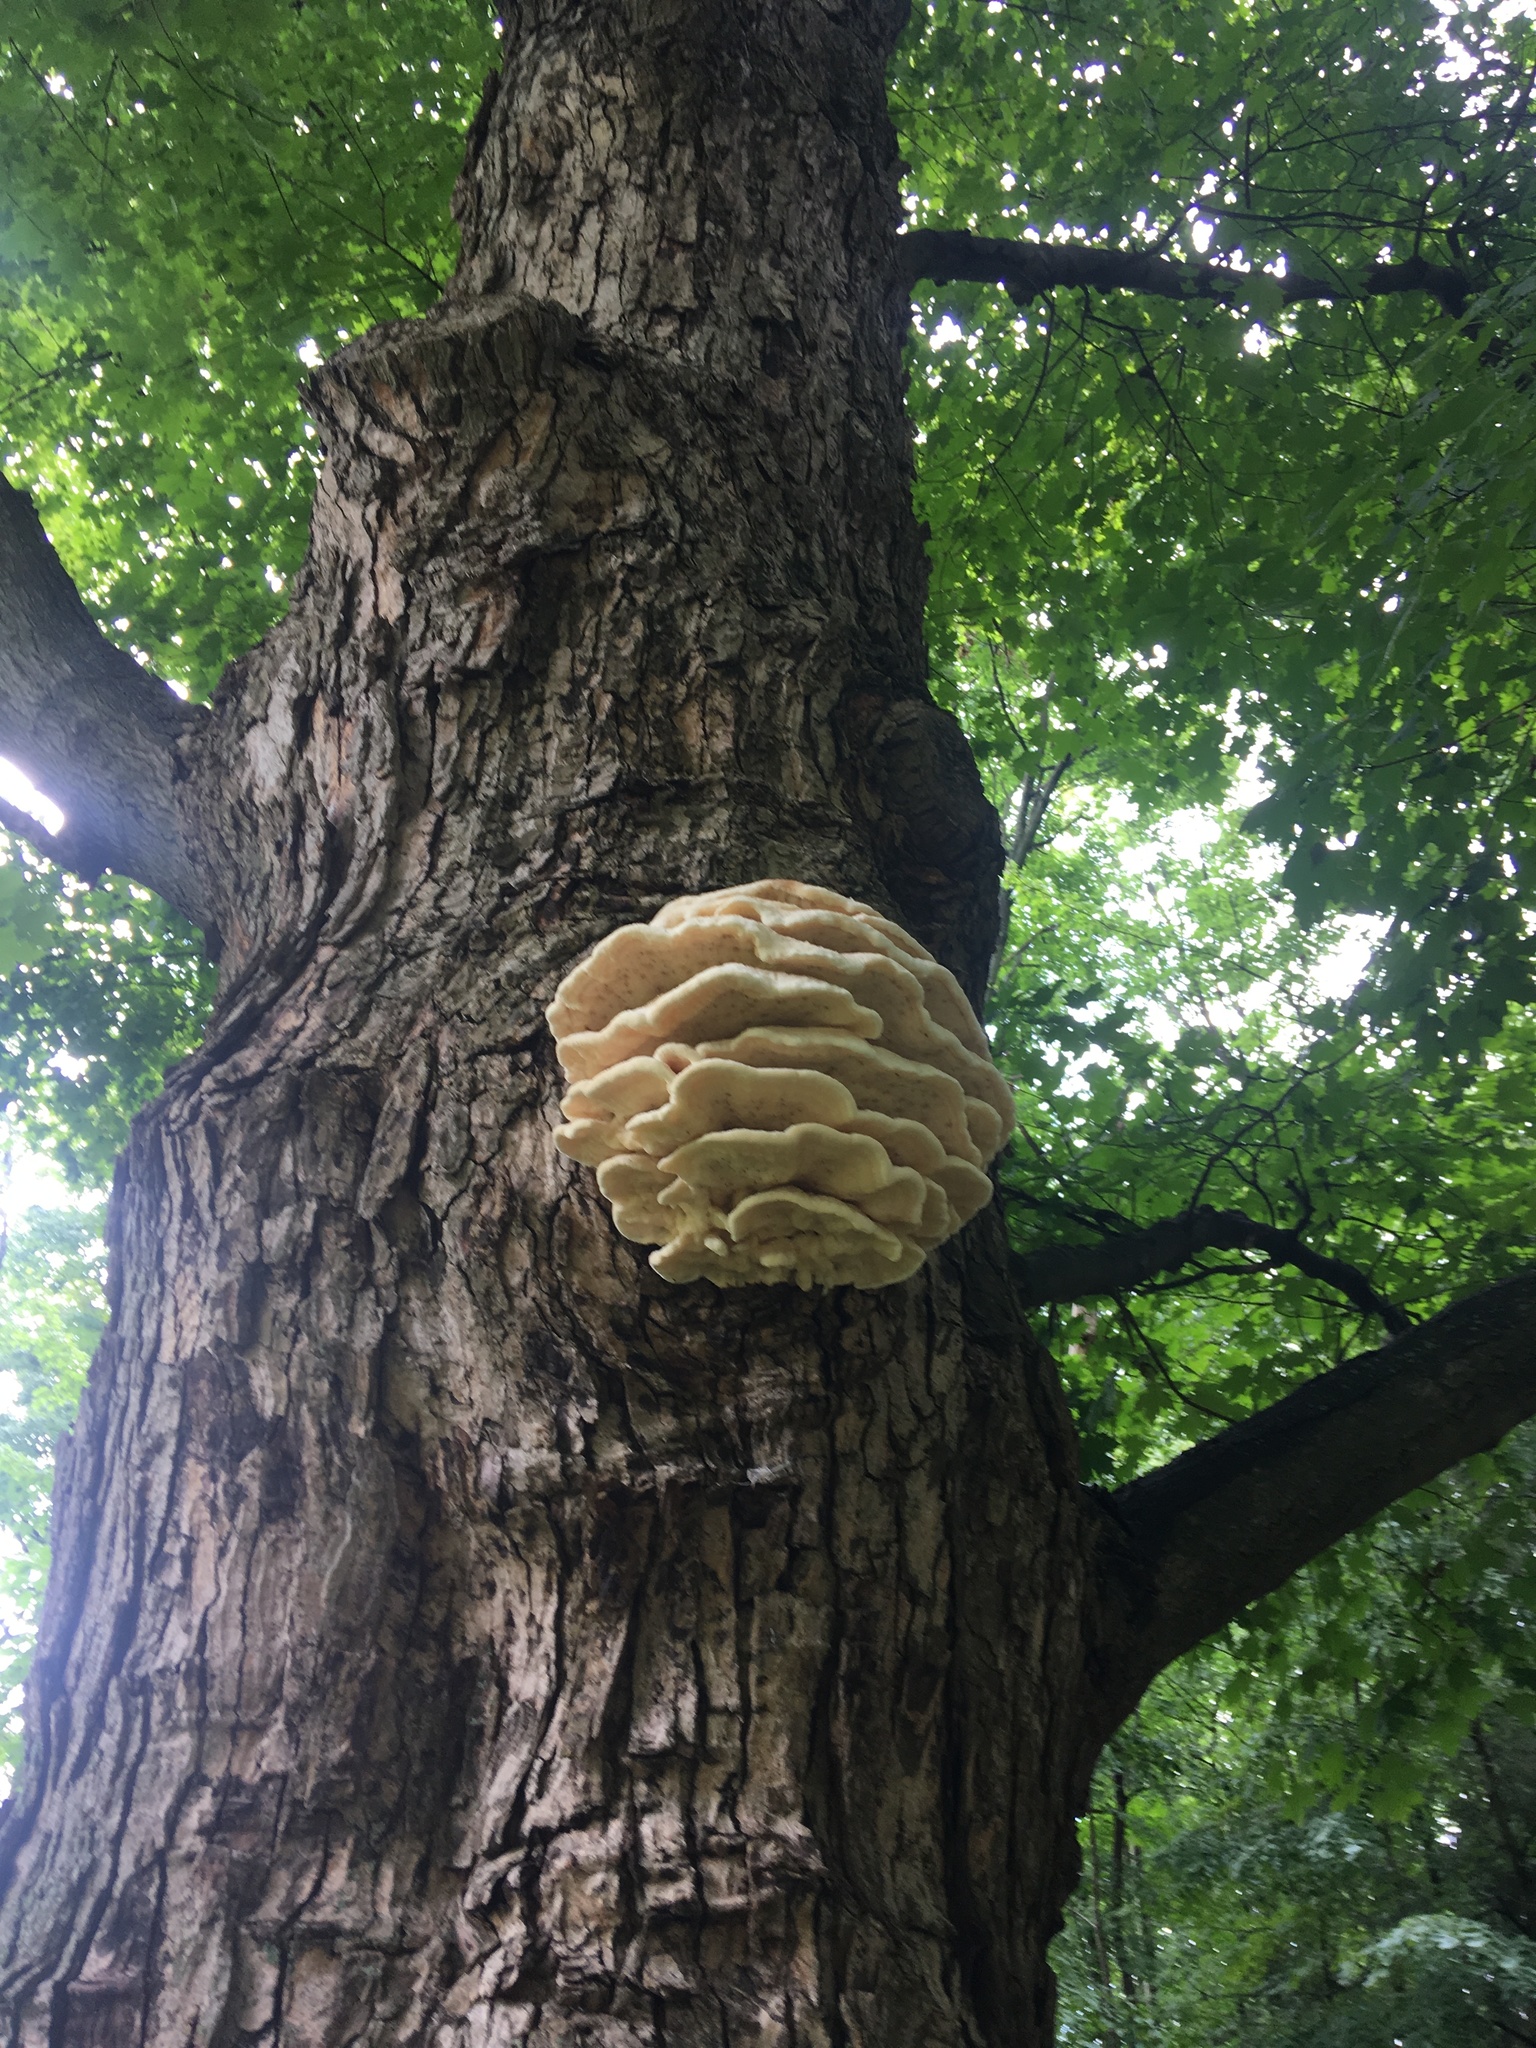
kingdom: Fungi
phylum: Basidiomycota
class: Agaricomycetes
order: Polyporales
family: Meruliaceae
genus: Climacodon
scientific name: Climacodon septentrionalis
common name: Northern tooth
